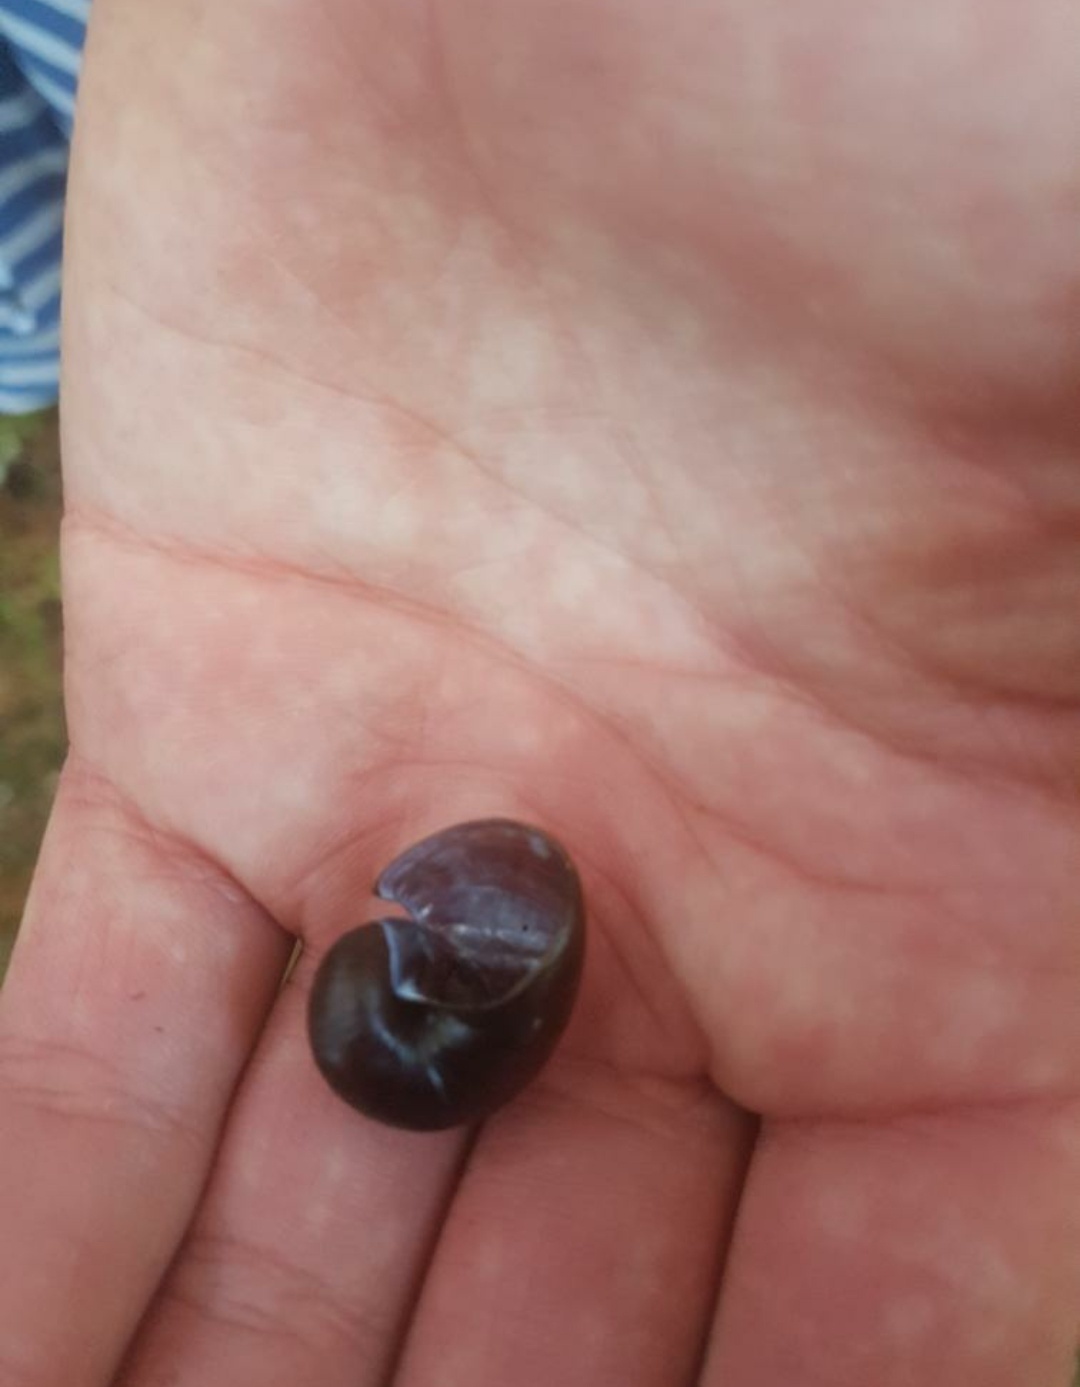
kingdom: Animalia
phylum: Mollusca
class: Gastropoda
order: Stylommatophora
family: Rhytididae
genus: Wainuia
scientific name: Wainuia urnula
